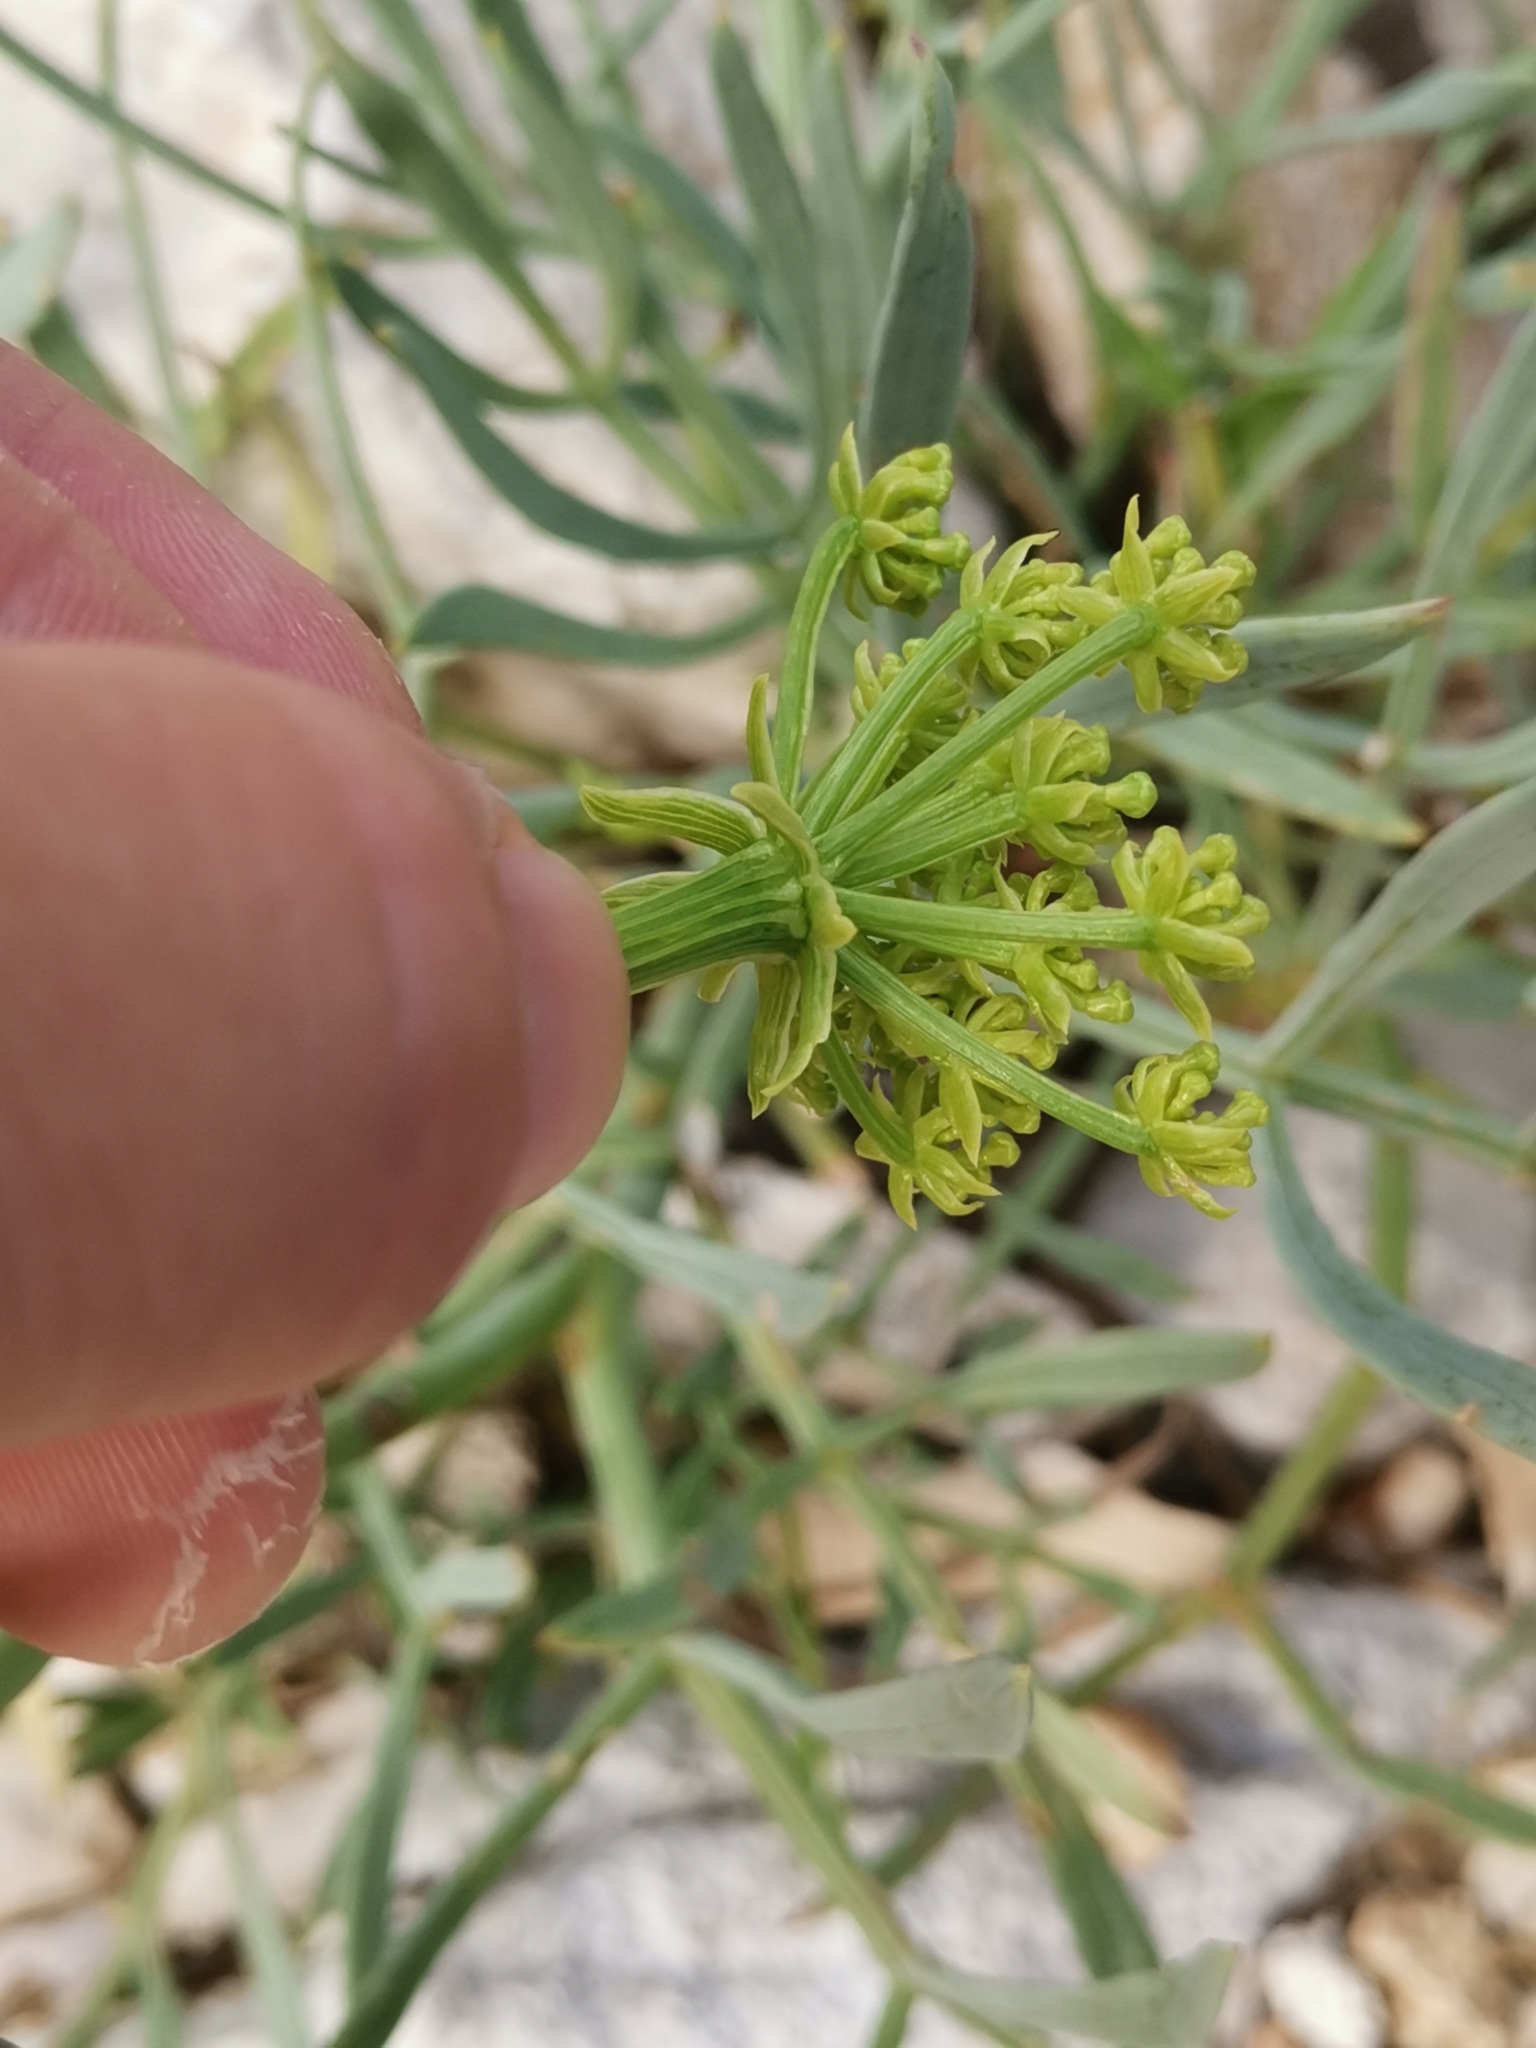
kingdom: Plantae
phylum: Tracheophyta
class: Magnoliopsida
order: Apiales
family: Apiaceae
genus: Crithmum
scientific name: Crithmum maritimum
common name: Rock samphire
